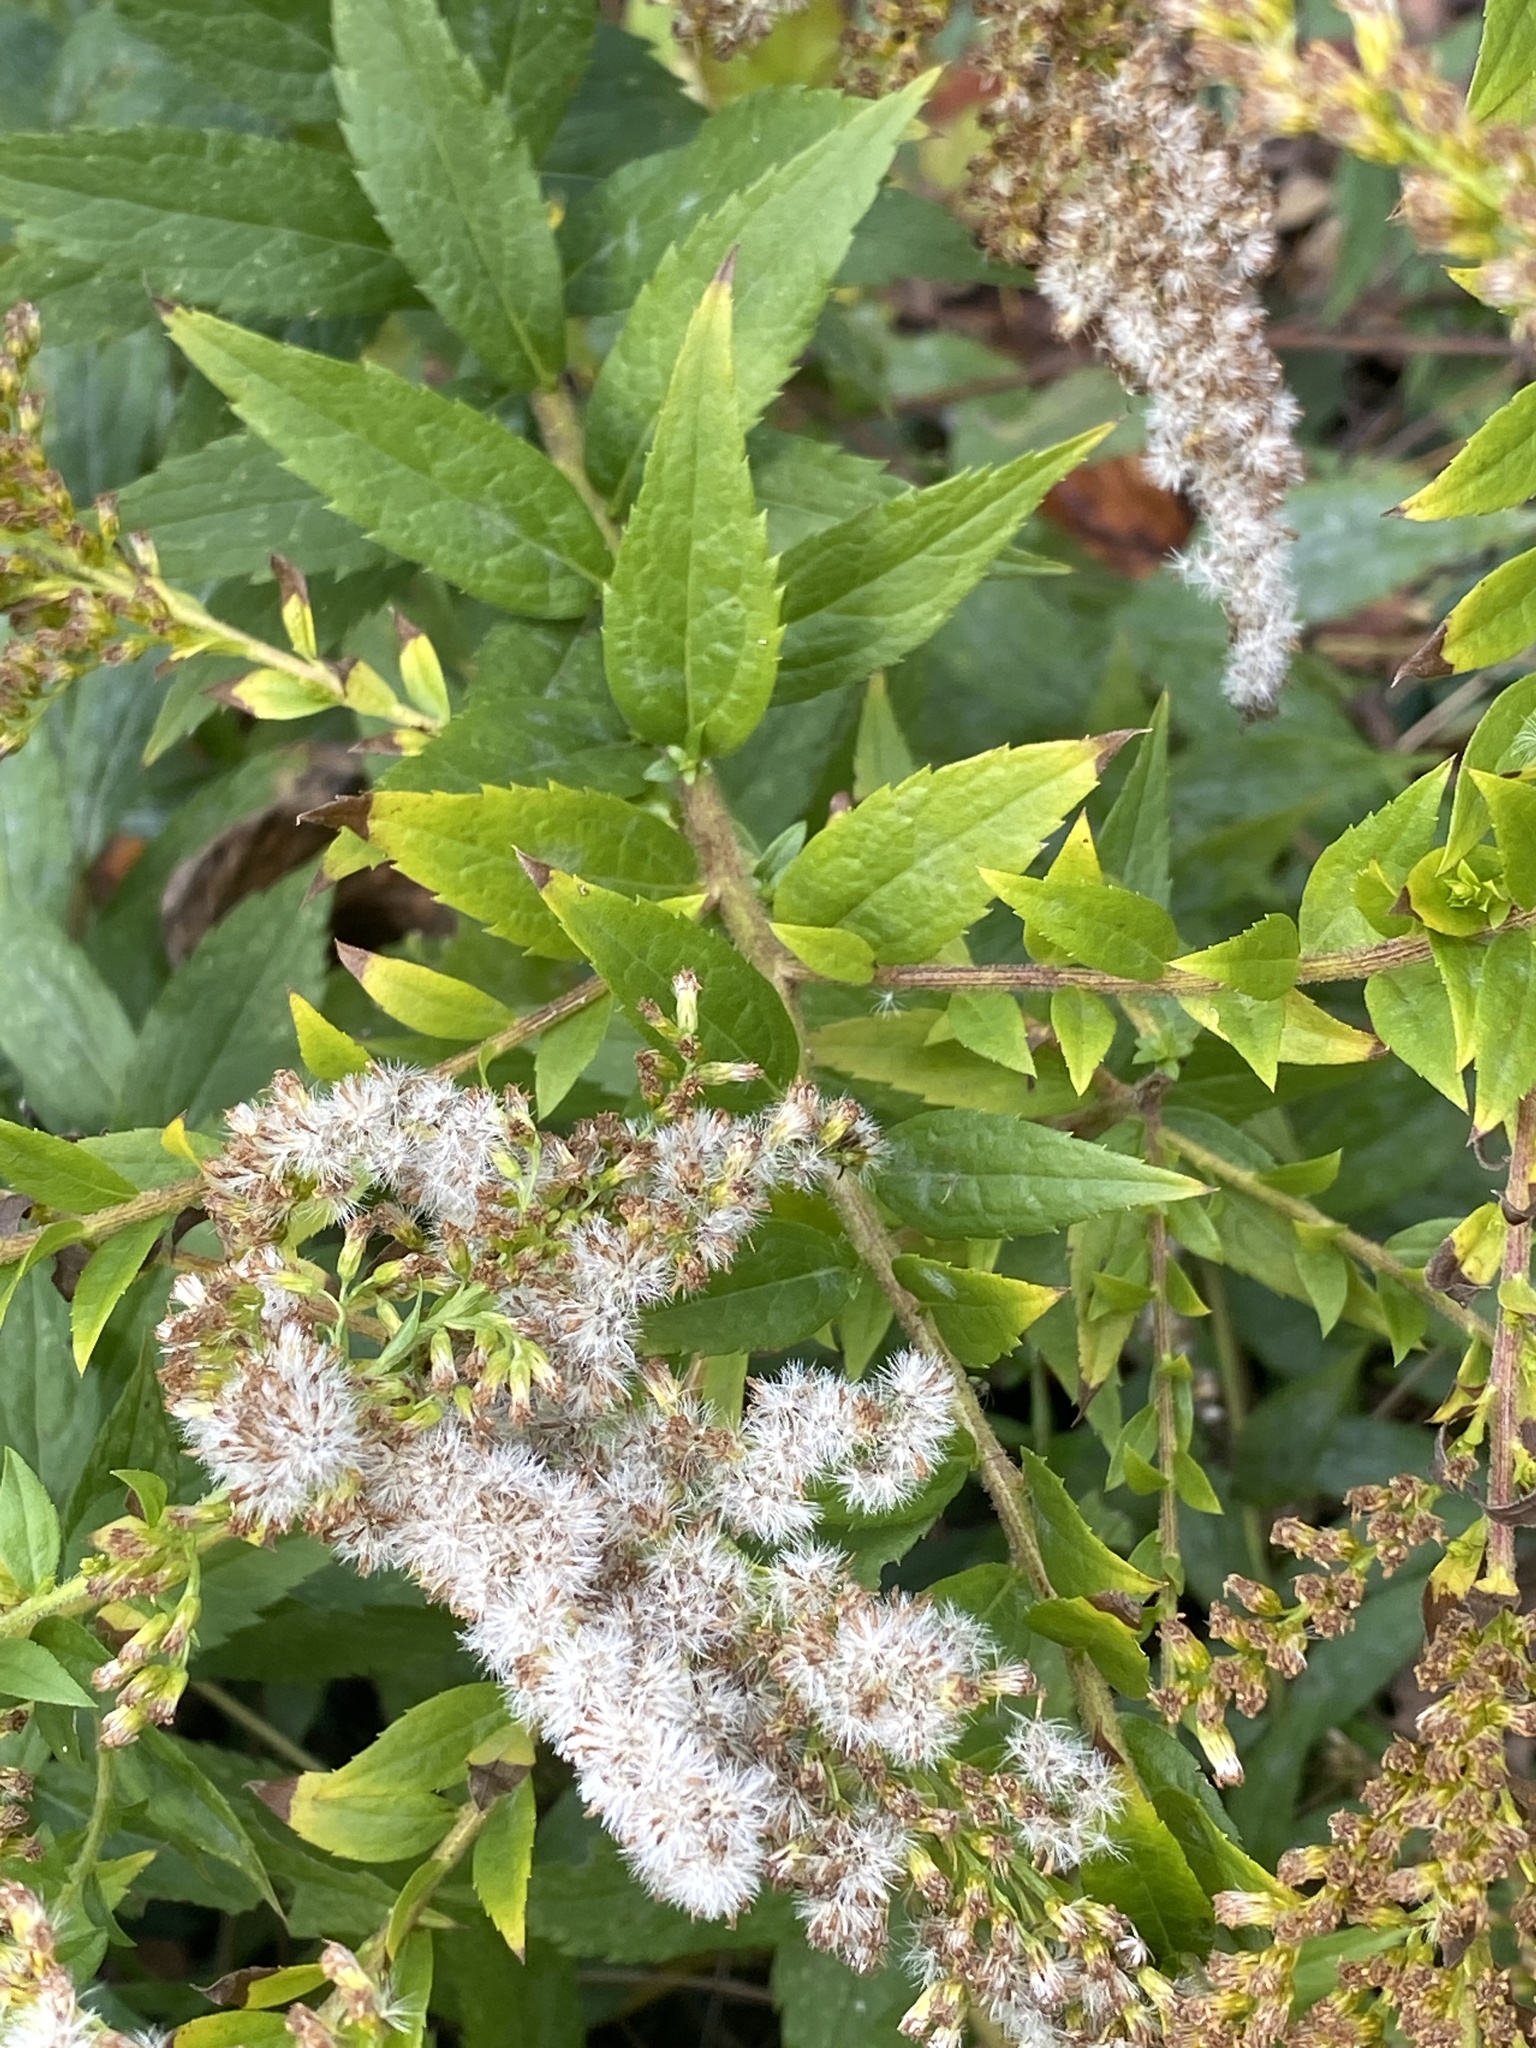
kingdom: Plantae
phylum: Tracheophyta
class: Magnoliopsida
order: Asterales
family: Asteraceae
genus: Solidago
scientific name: Solidago rugosa
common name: Rough-stemmed goldenrod
